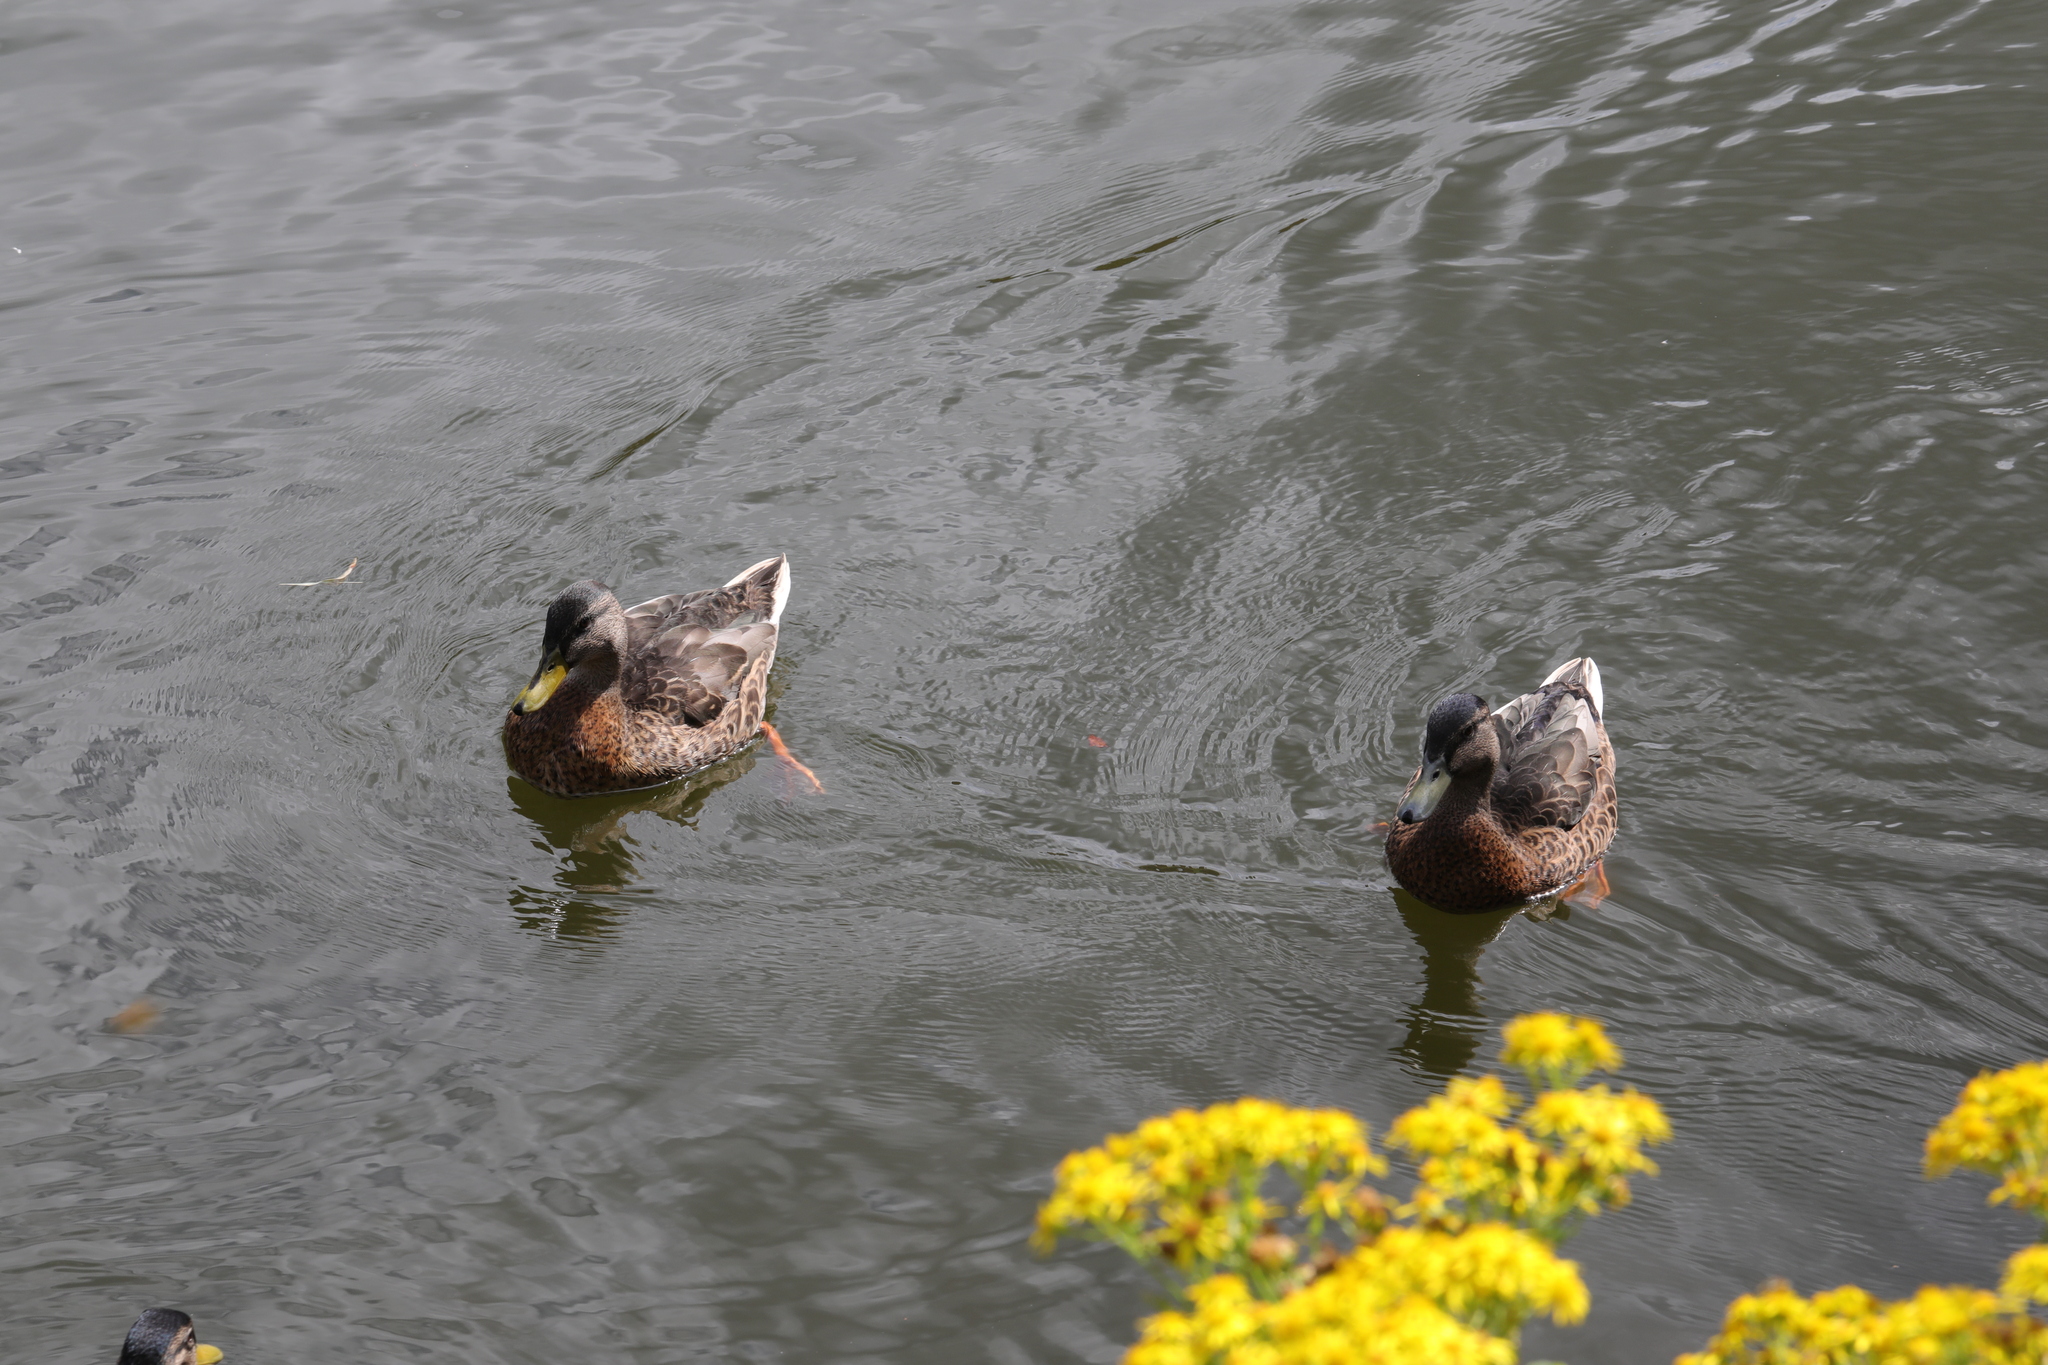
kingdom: Animalia
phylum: Chordata
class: Aves
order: Anseriformes
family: Anatidae
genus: Anas
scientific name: Anas platyrhynchos
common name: Mallard
